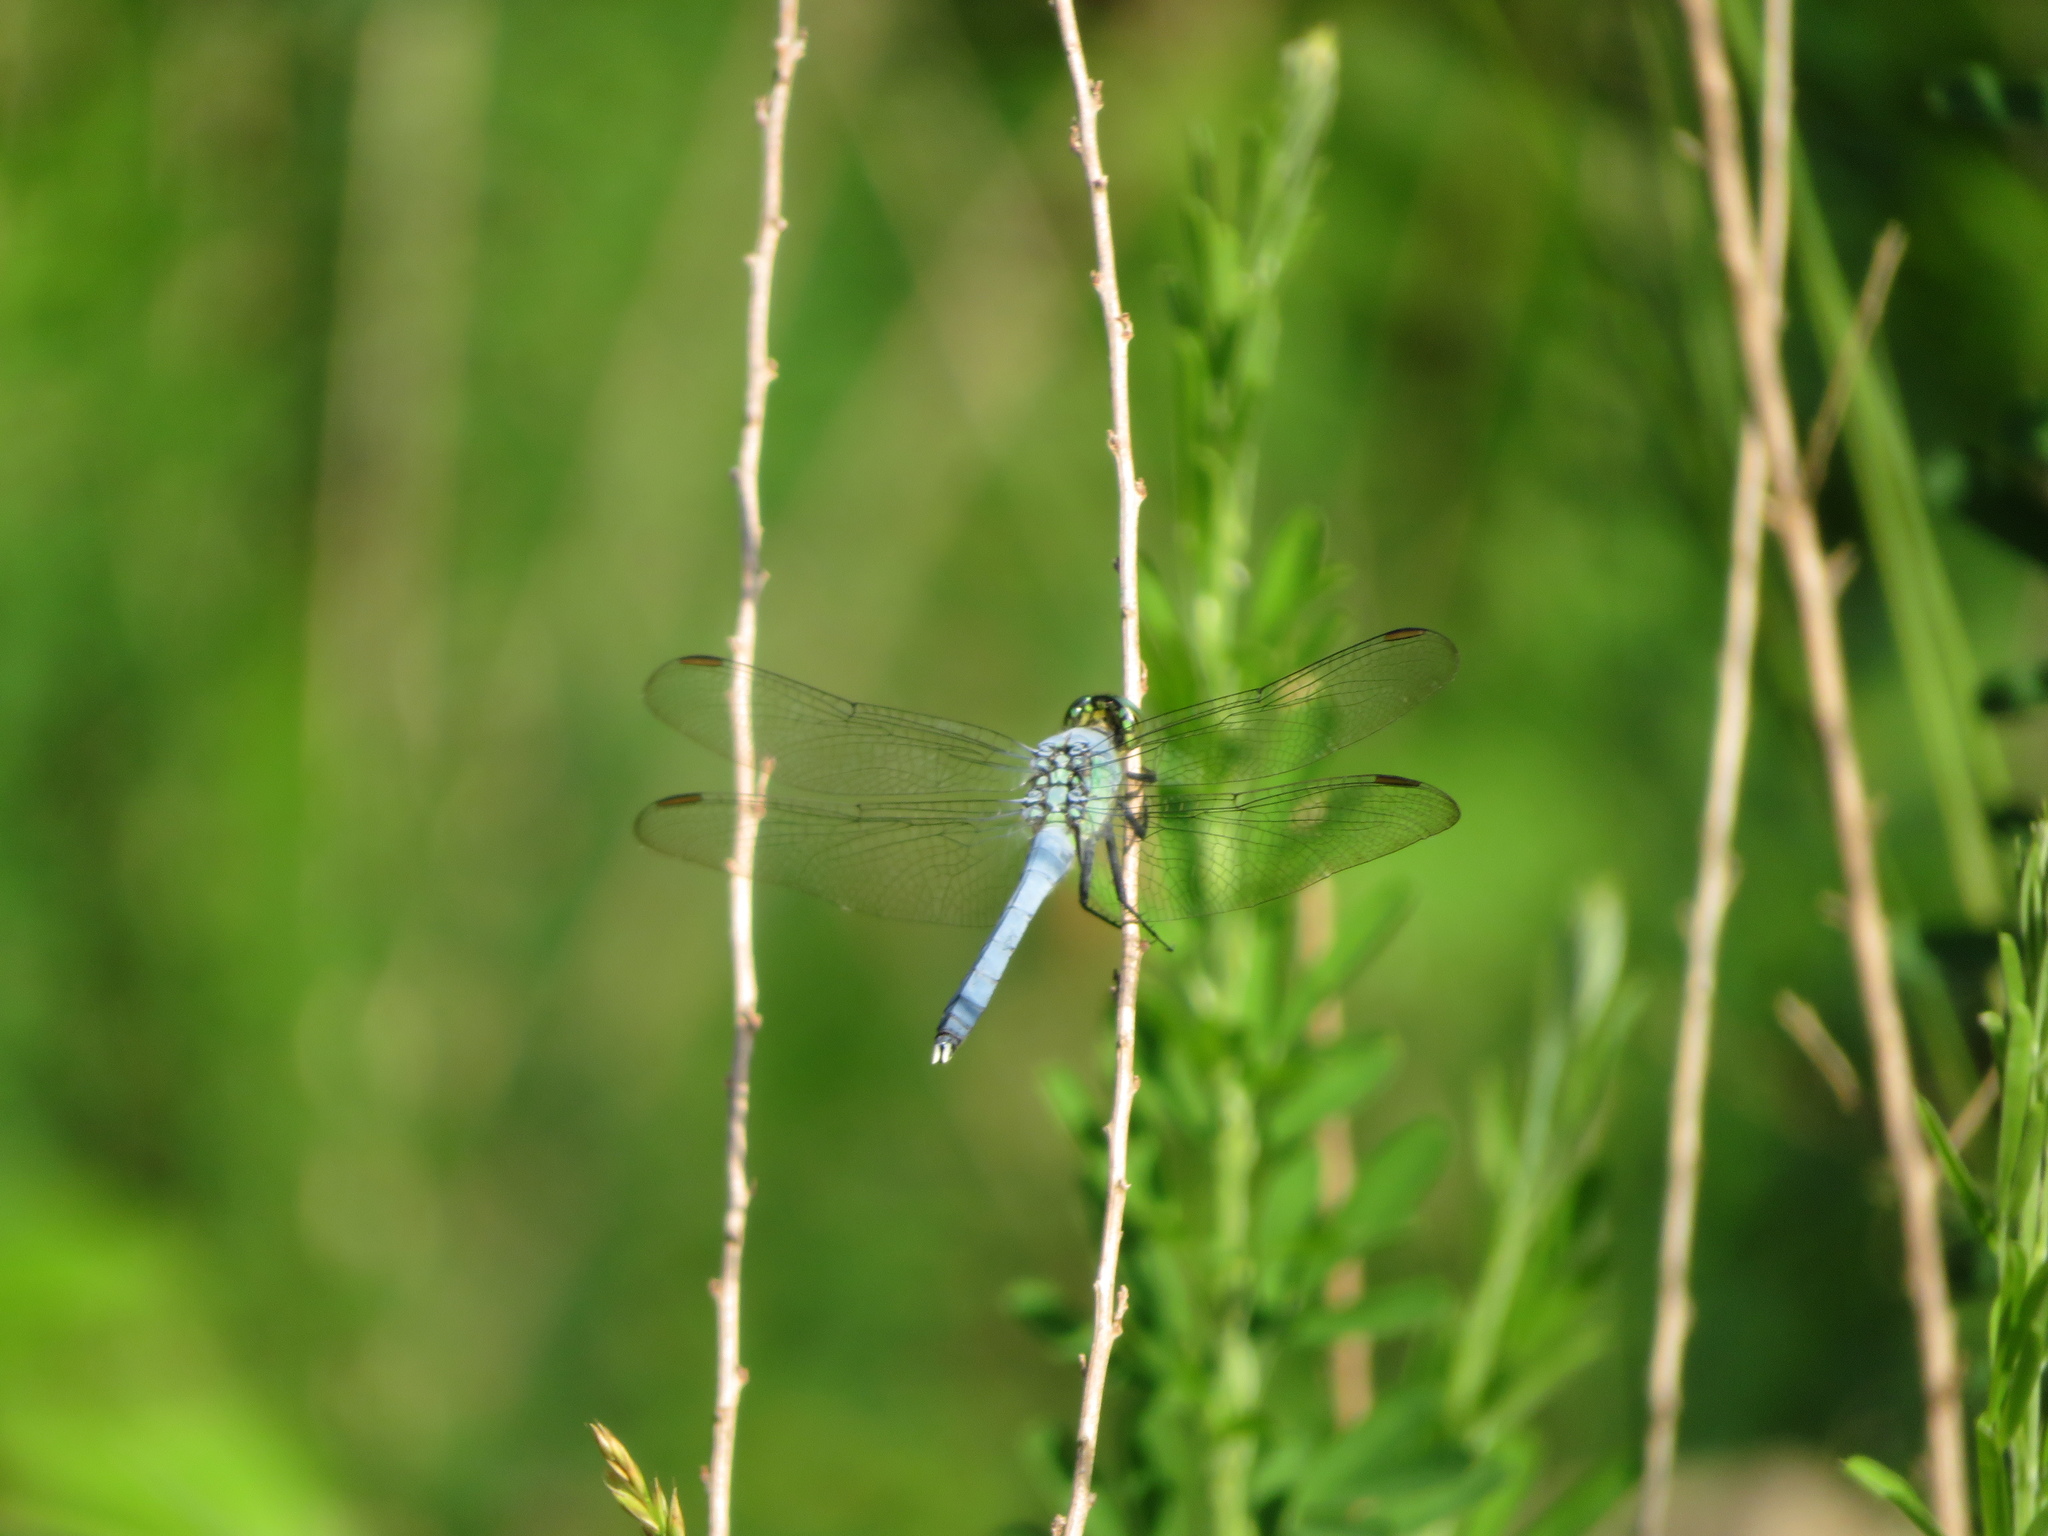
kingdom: Animalia
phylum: Arthropoda
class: Insecta
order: Odonata
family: Libellulidae
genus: Erythemis
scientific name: Erythemis simplicicollis
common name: Eastern pondhawk
